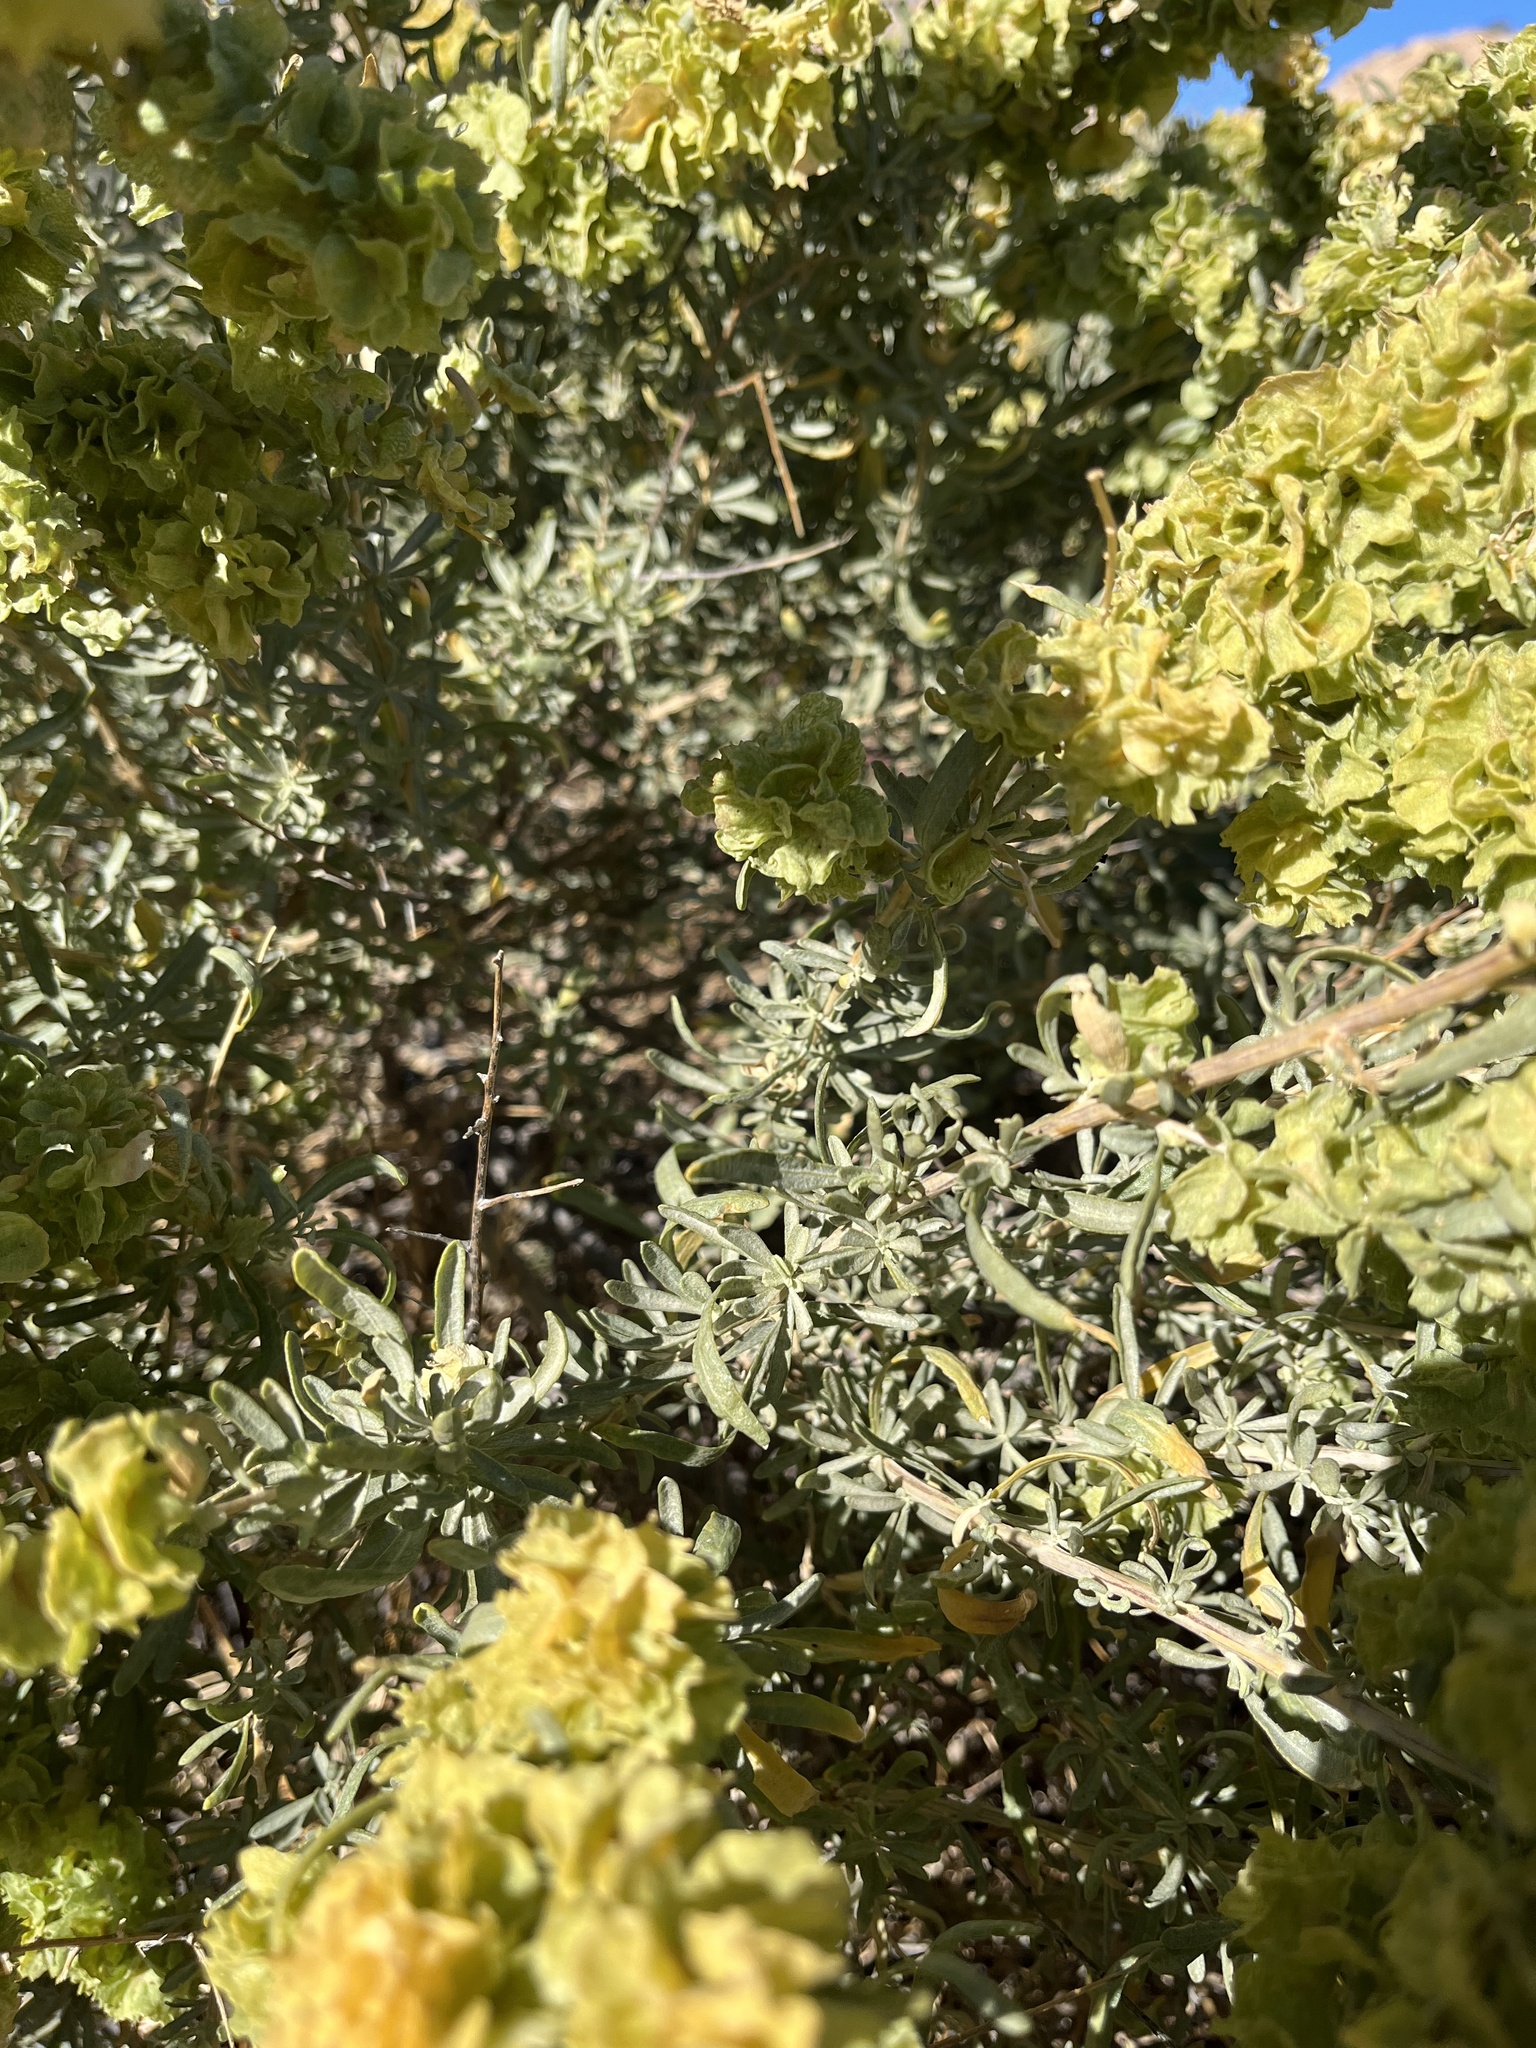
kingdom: Plantae
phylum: Tracheophyta
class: Magnoliopsida
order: Caryophyllales
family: Amaranthaceae
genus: Atriplex
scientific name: Atriplex canescens
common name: Four-wing saltbush
